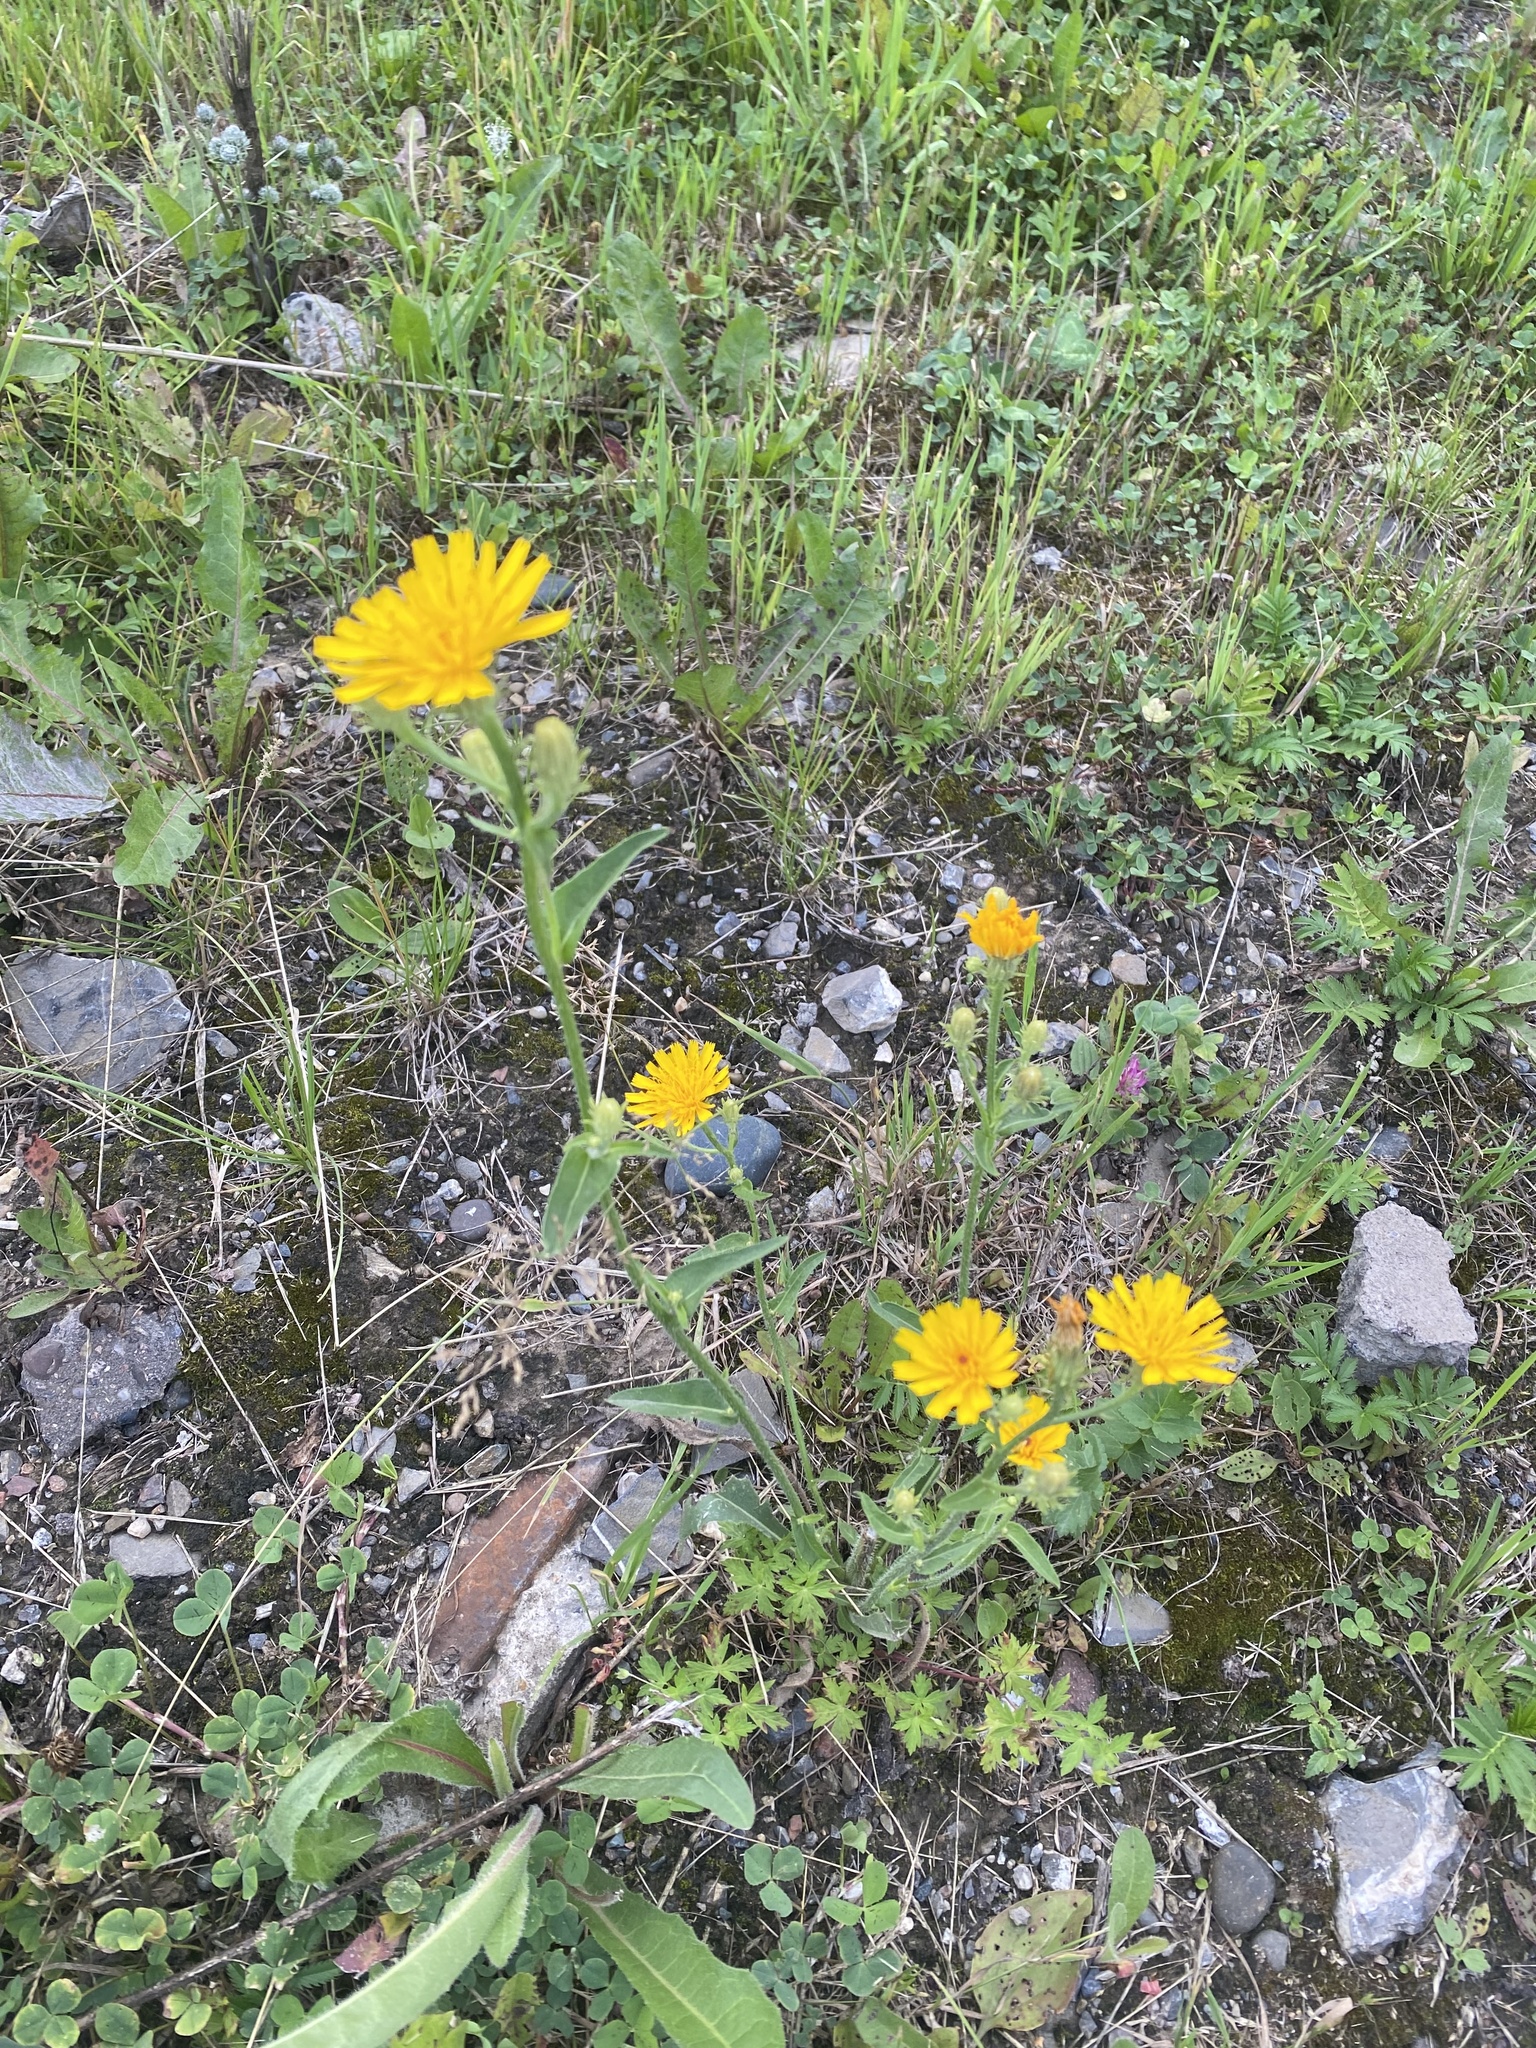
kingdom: Plantae
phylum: Tracheophyta
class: Magnoliopsida
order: Asterales
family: Asteraceae
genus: Picris
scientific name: Picris hieracioides
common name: Hawkweed oxtongue
